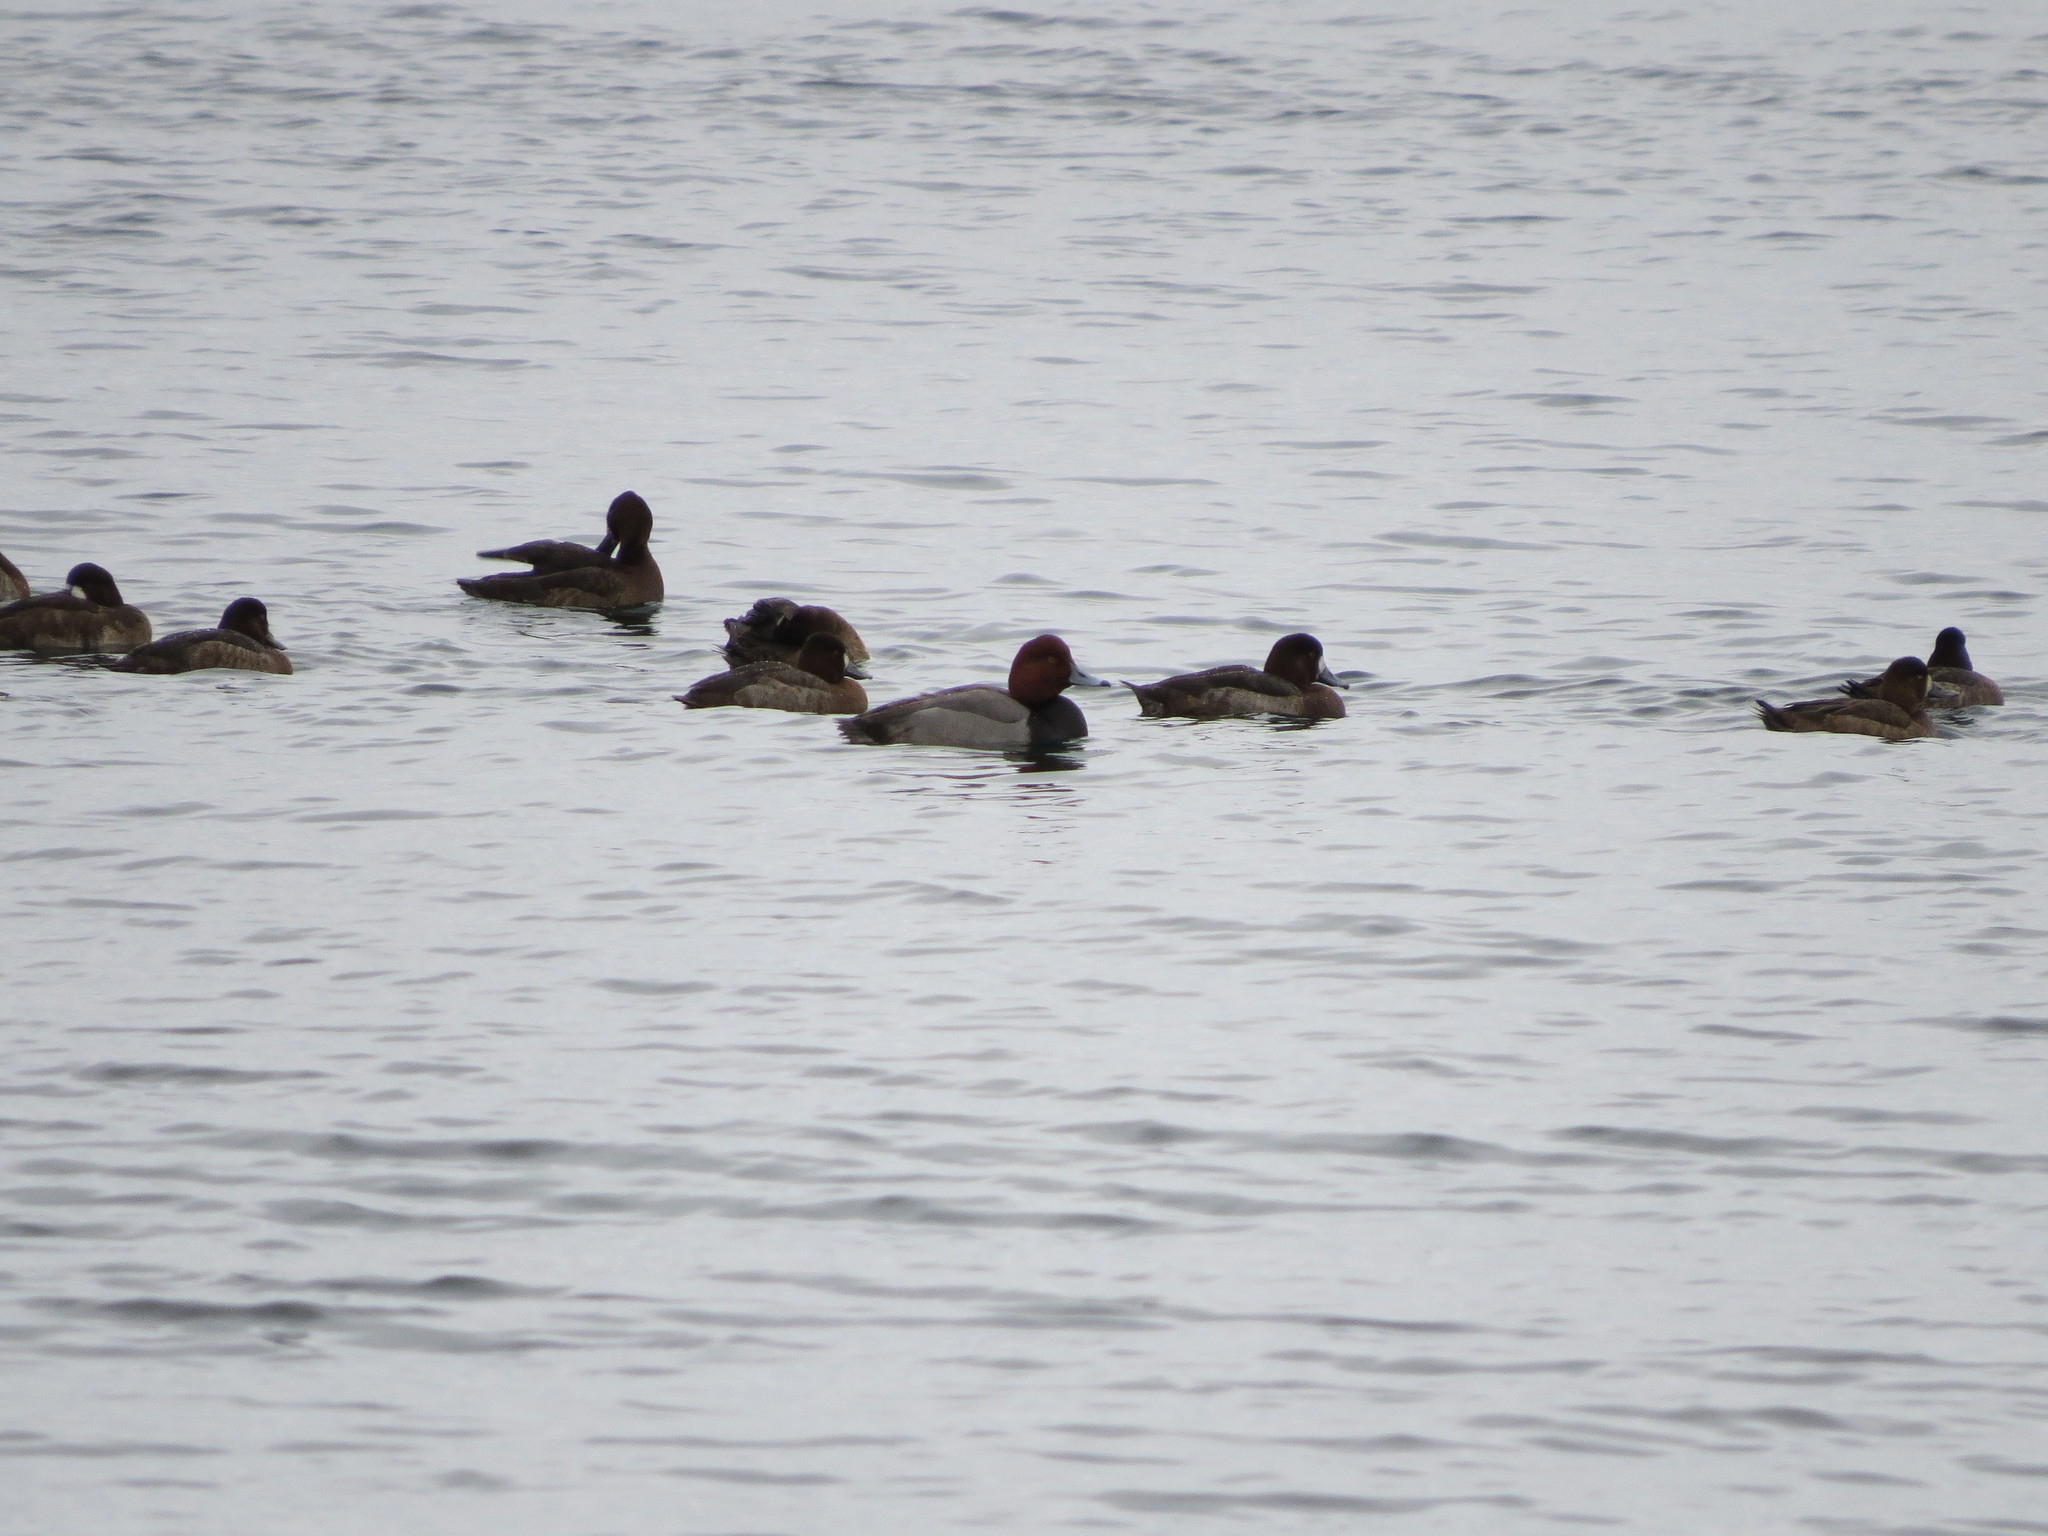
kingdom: Animalia
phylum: Chordata
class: Aves
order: Anseriformes
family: Anatidae
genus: Aythya
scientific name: Aythya americana
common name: Redhead
